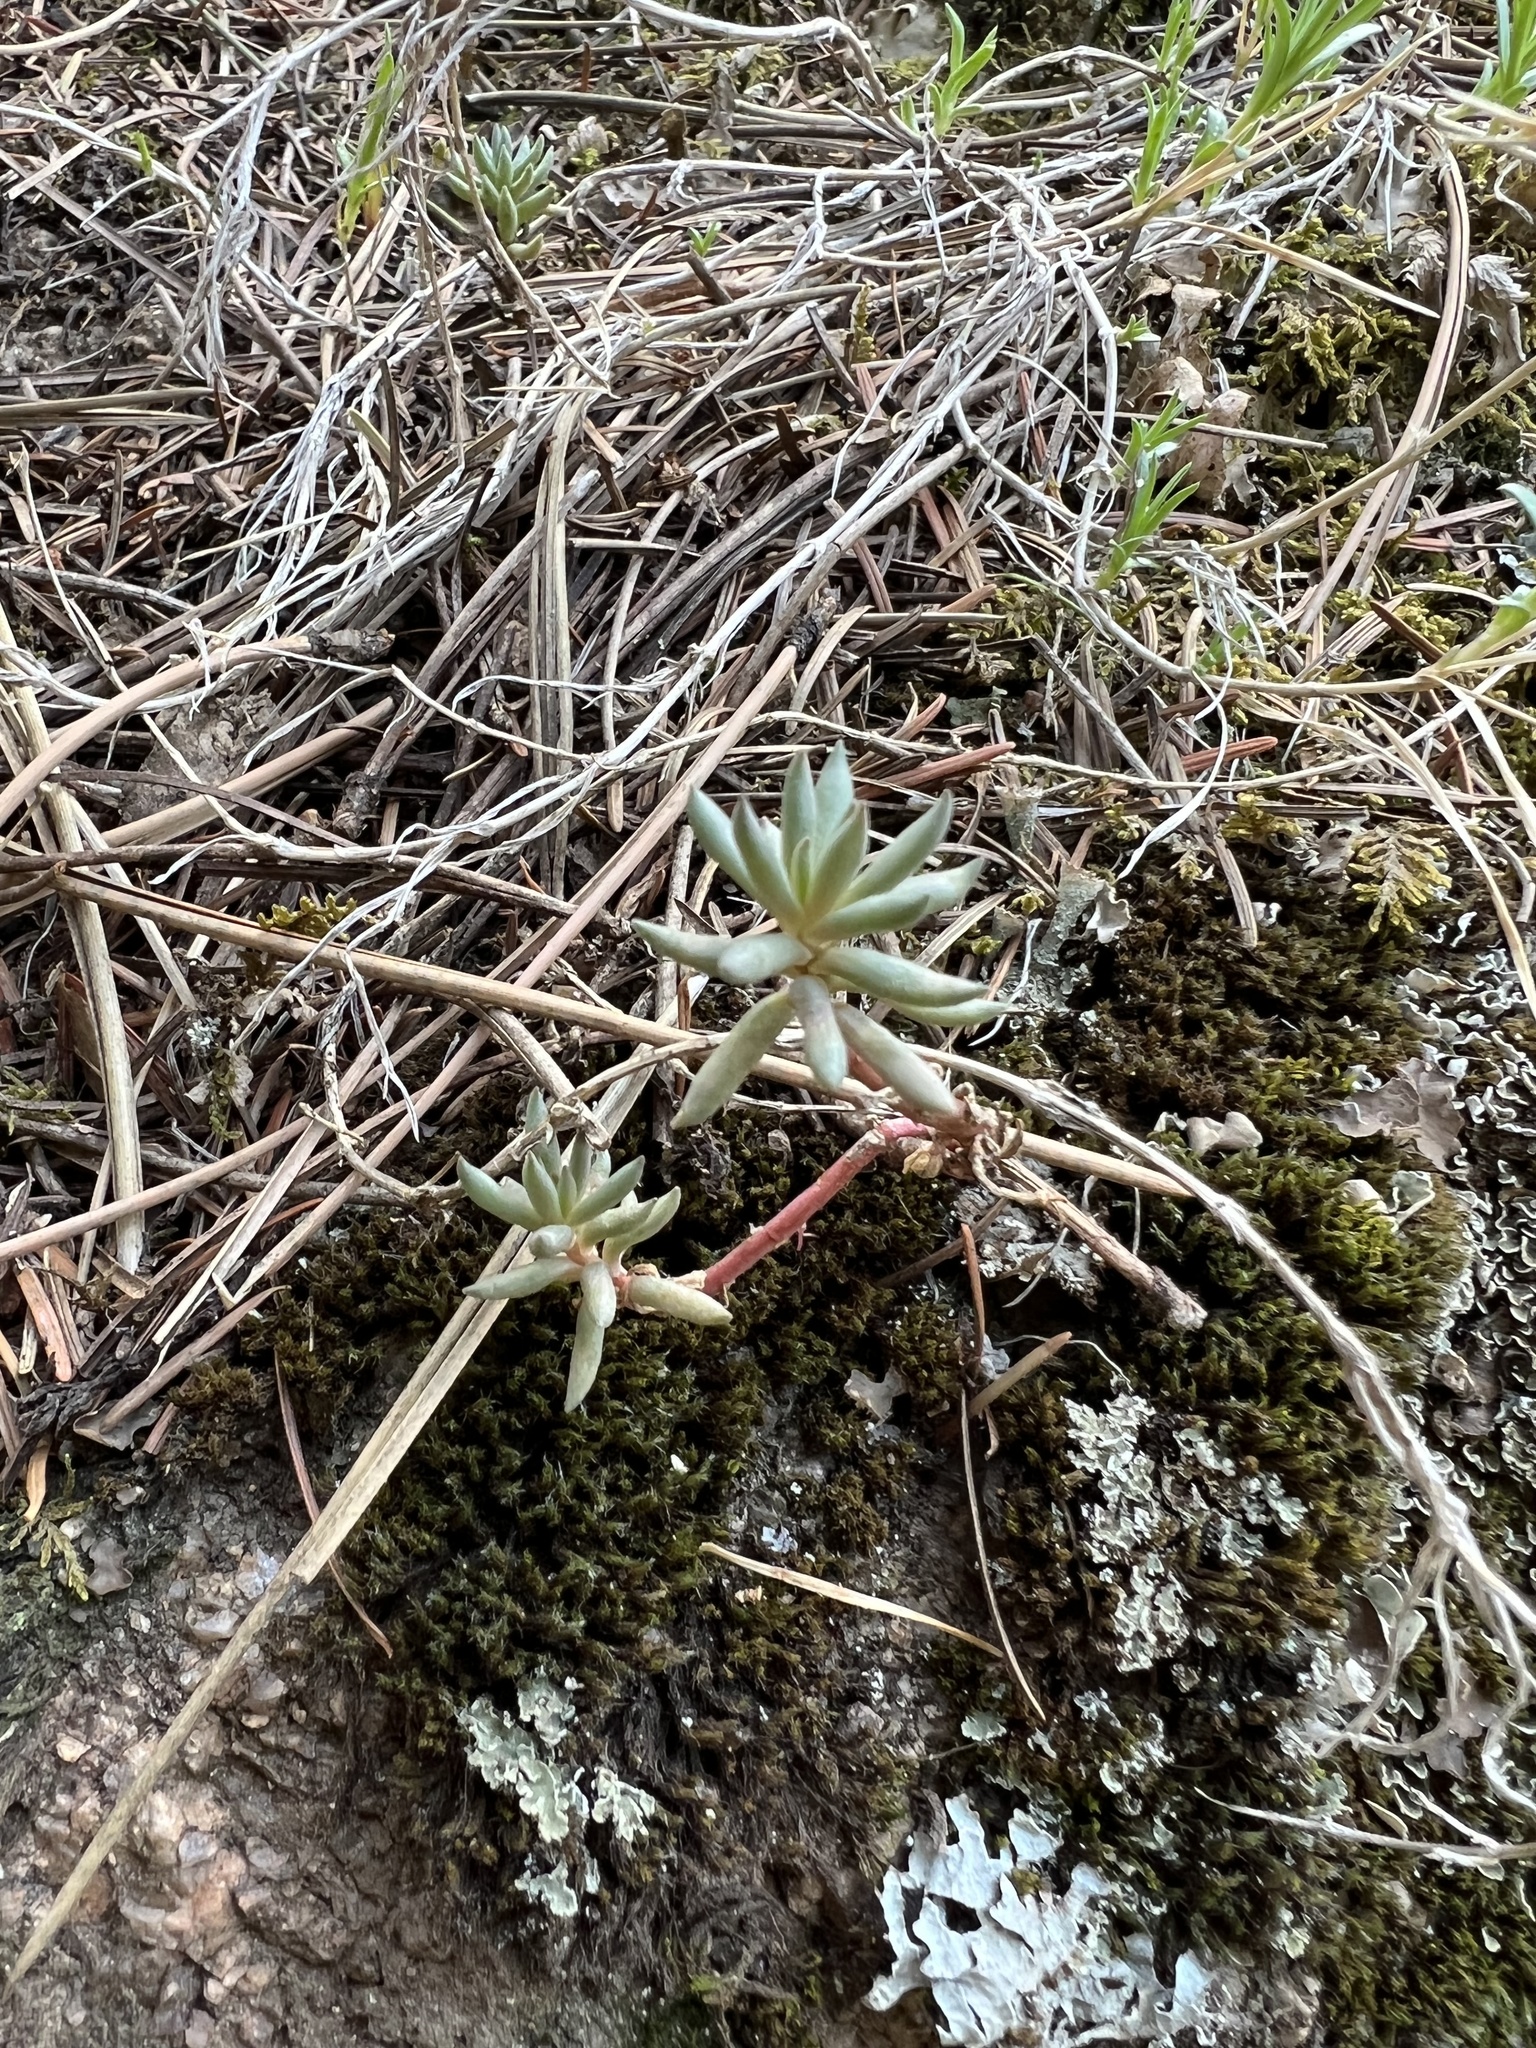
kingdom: Plantae
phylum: Tracheophyta
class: Magnoliopsida
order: Saxifragales
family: Crassulaceae
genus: Sedum
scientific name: Sedum lanceolatum
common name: Common stonecrop
